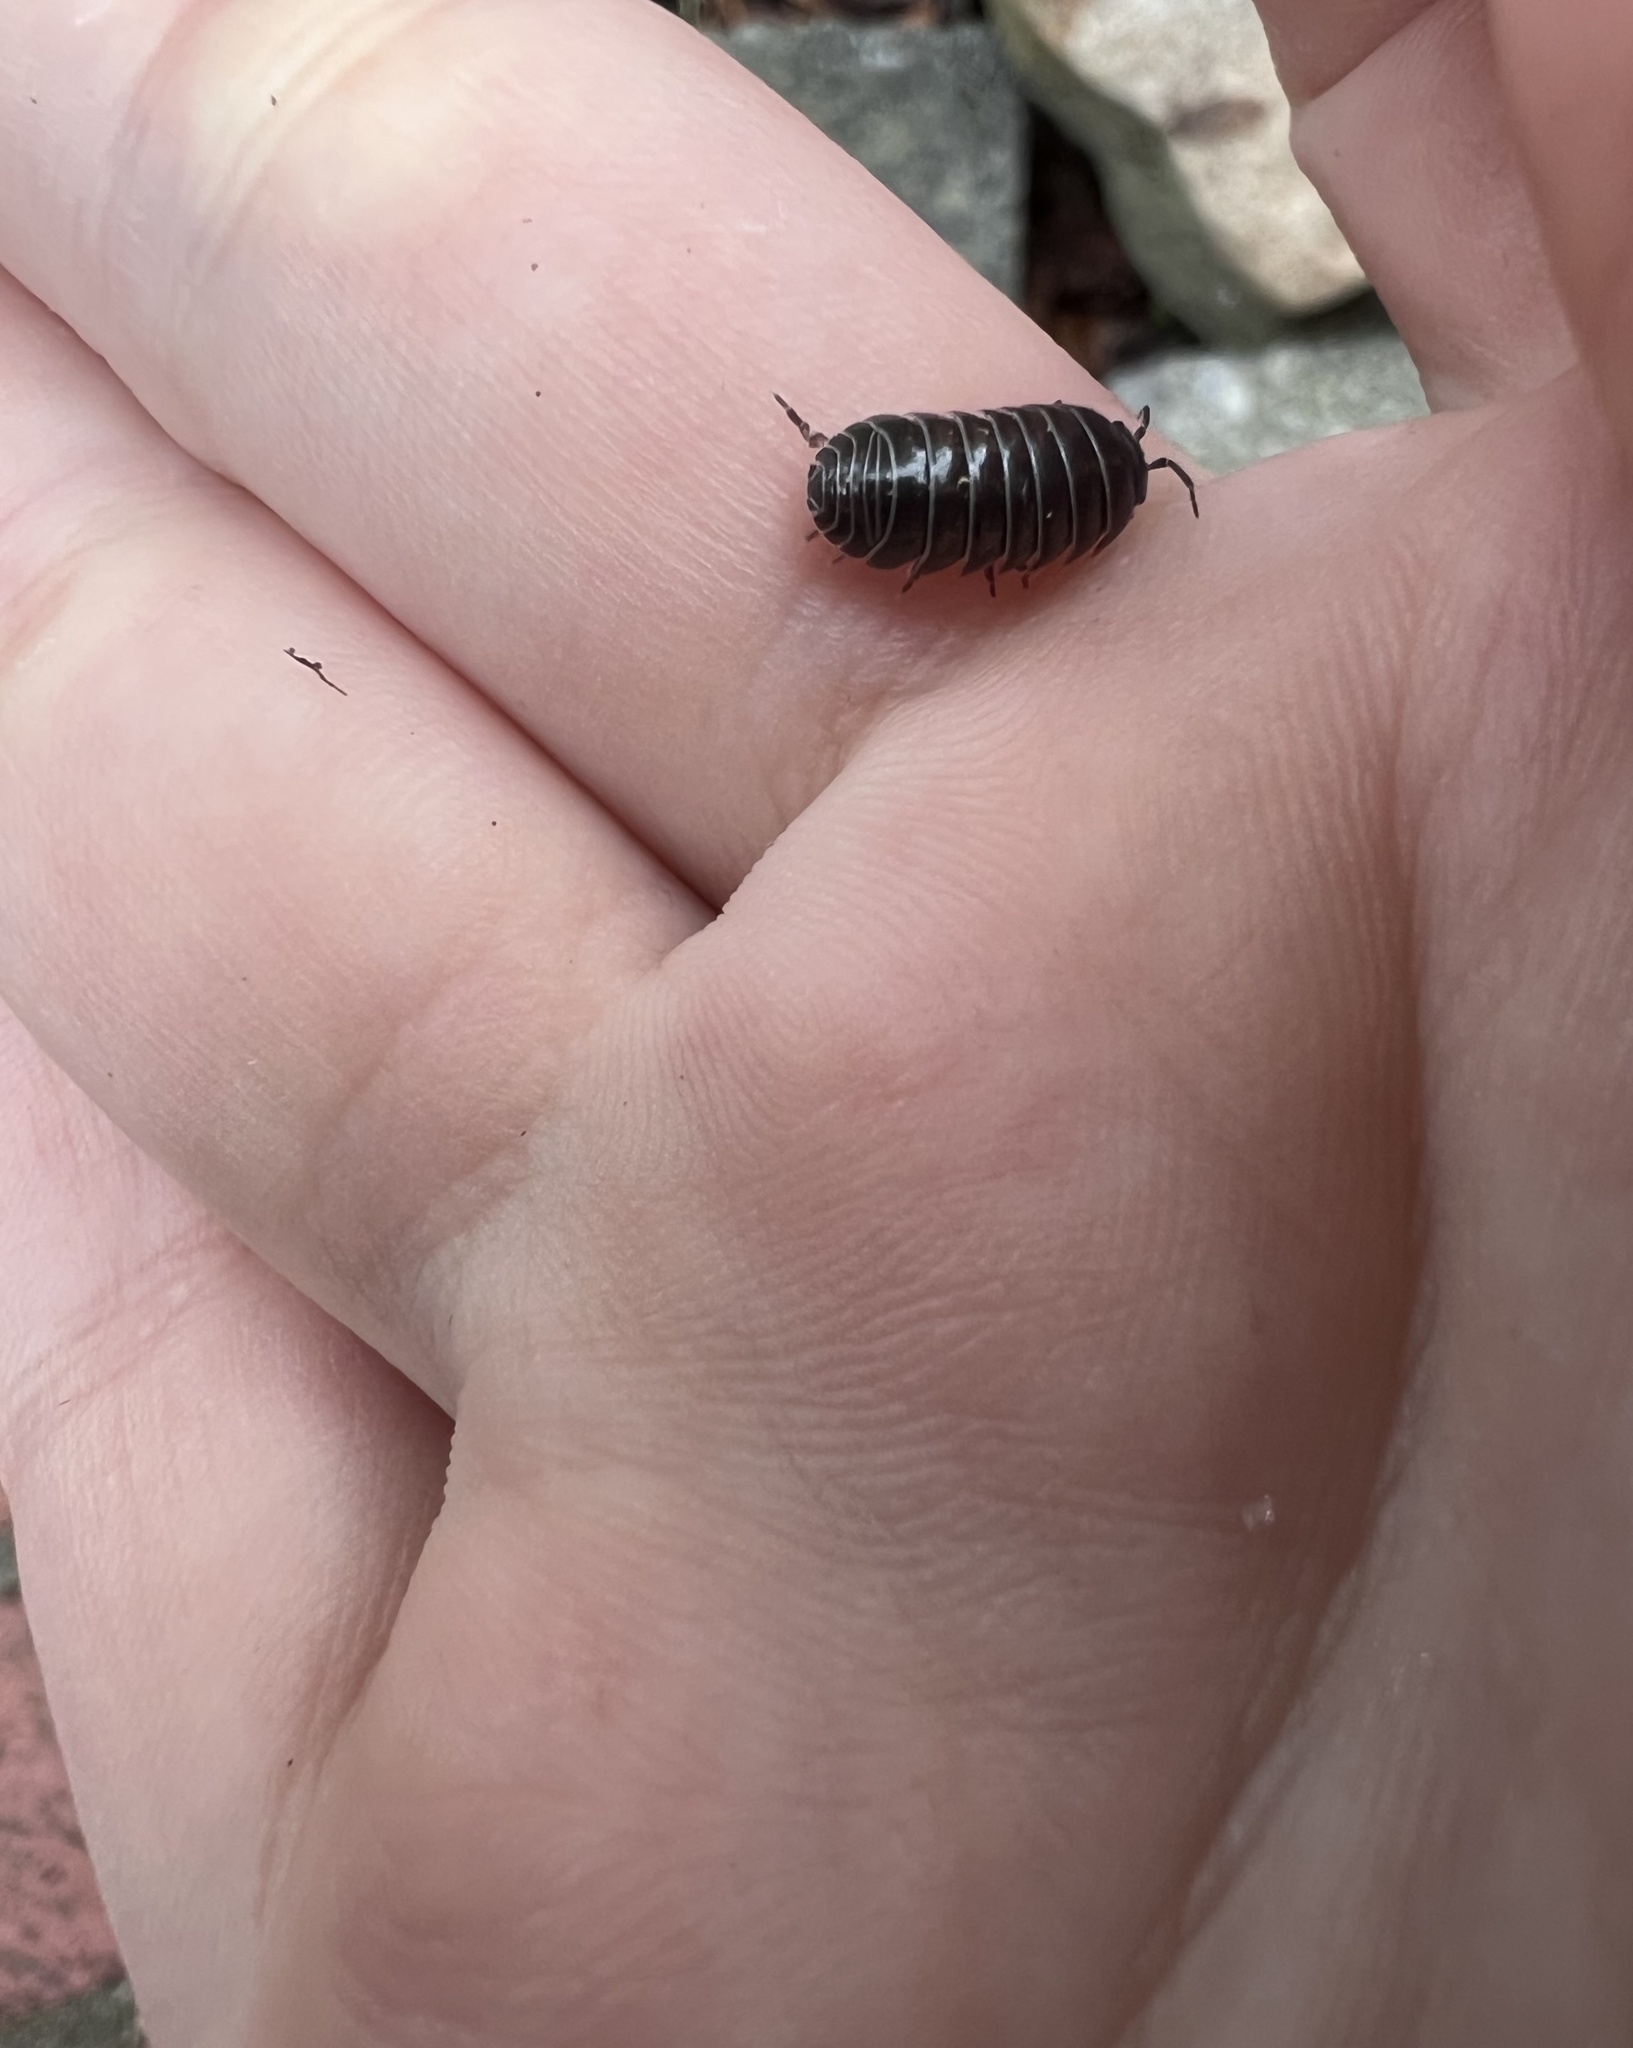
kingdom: Animalia
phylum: Arthropoda
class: Malacostraca
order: Isopoda
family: Armadillidiidae
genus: Armadillidium
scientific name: Armadillidium vulgare
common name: Common pill woodlouse
